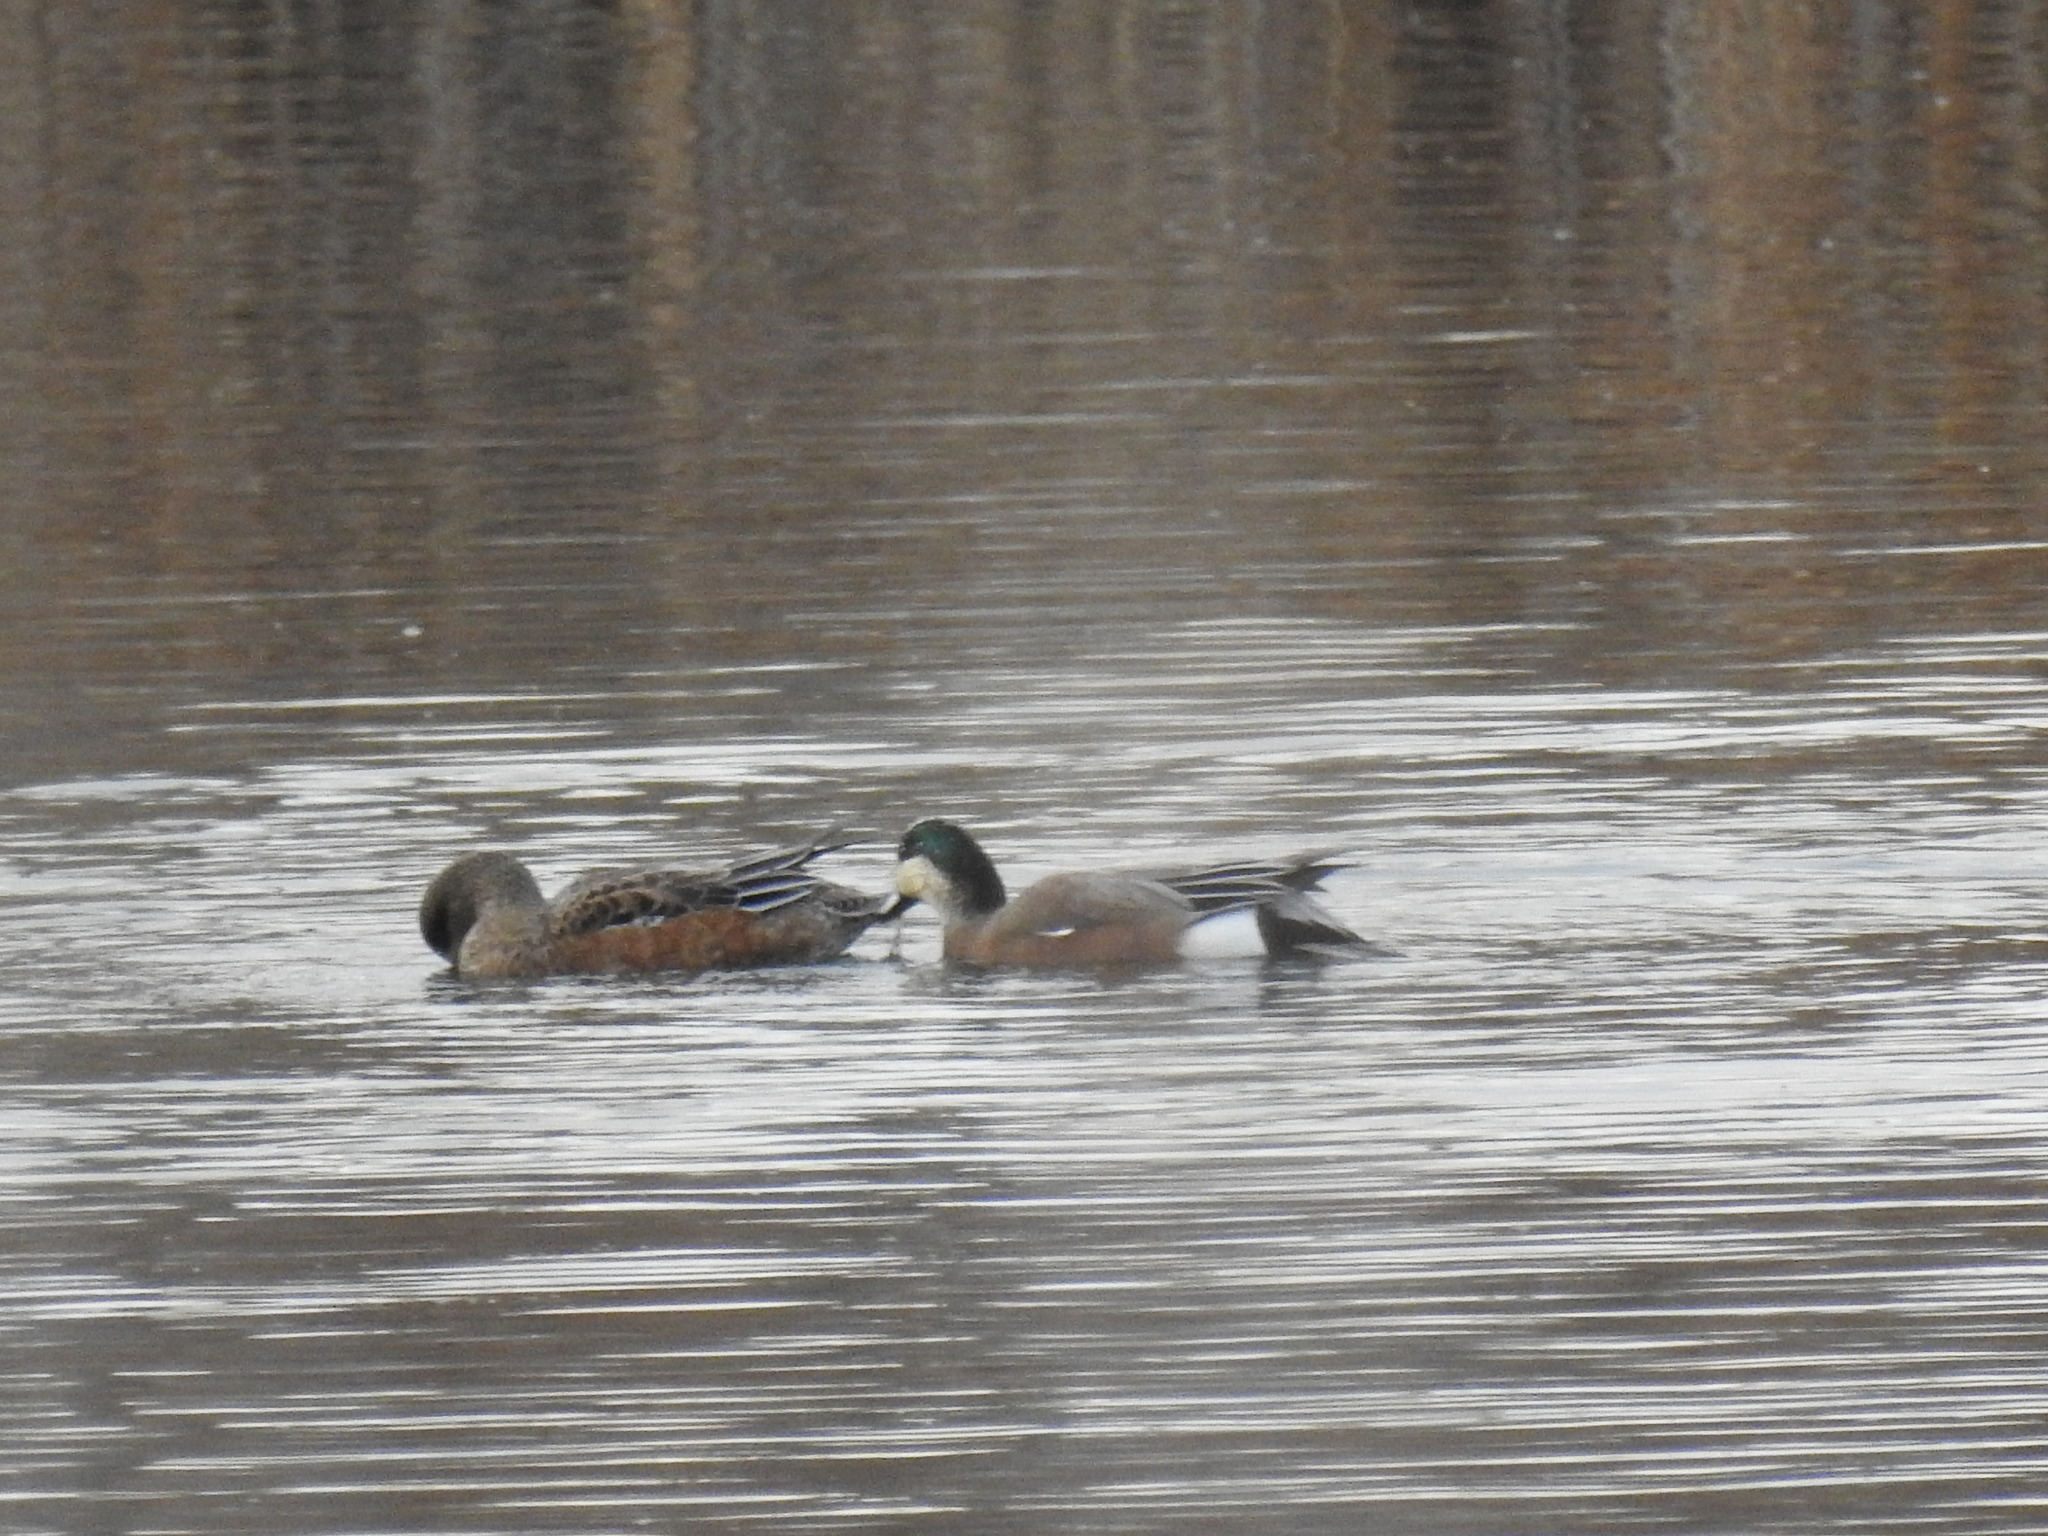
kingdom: Animalia
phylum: Chordata
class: Aves
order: Anseriformes
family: Anatidae
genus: Mareca
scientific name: Mareca americana
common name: American wigeon
